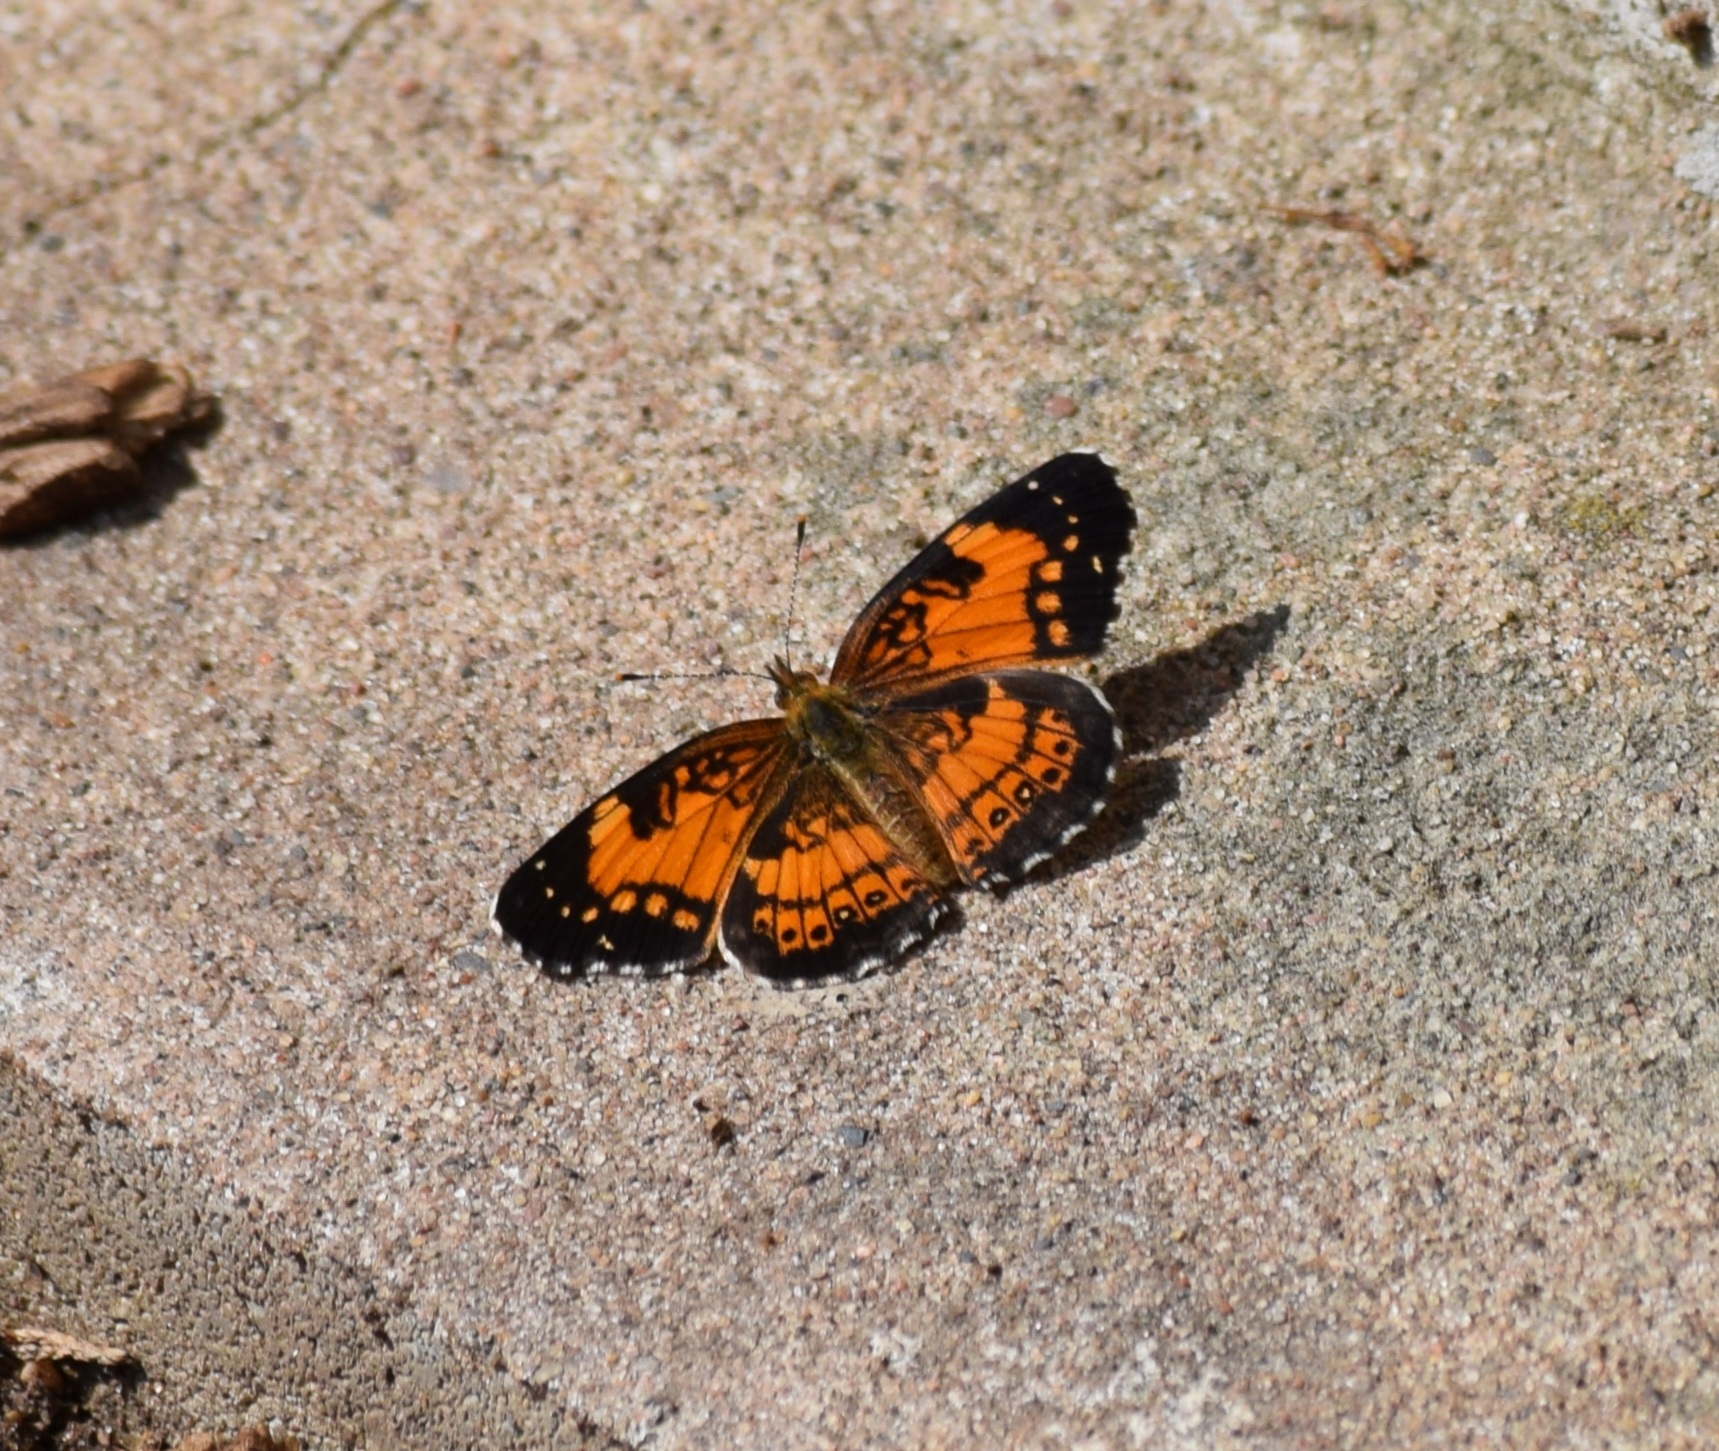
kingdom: Animalia
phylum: Arthropoda
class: Insecta
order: Lepidoptera
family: Nymphalidae
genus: Chlosyne
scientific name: Chlosyne nycteis
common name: Silvery checkerspot
